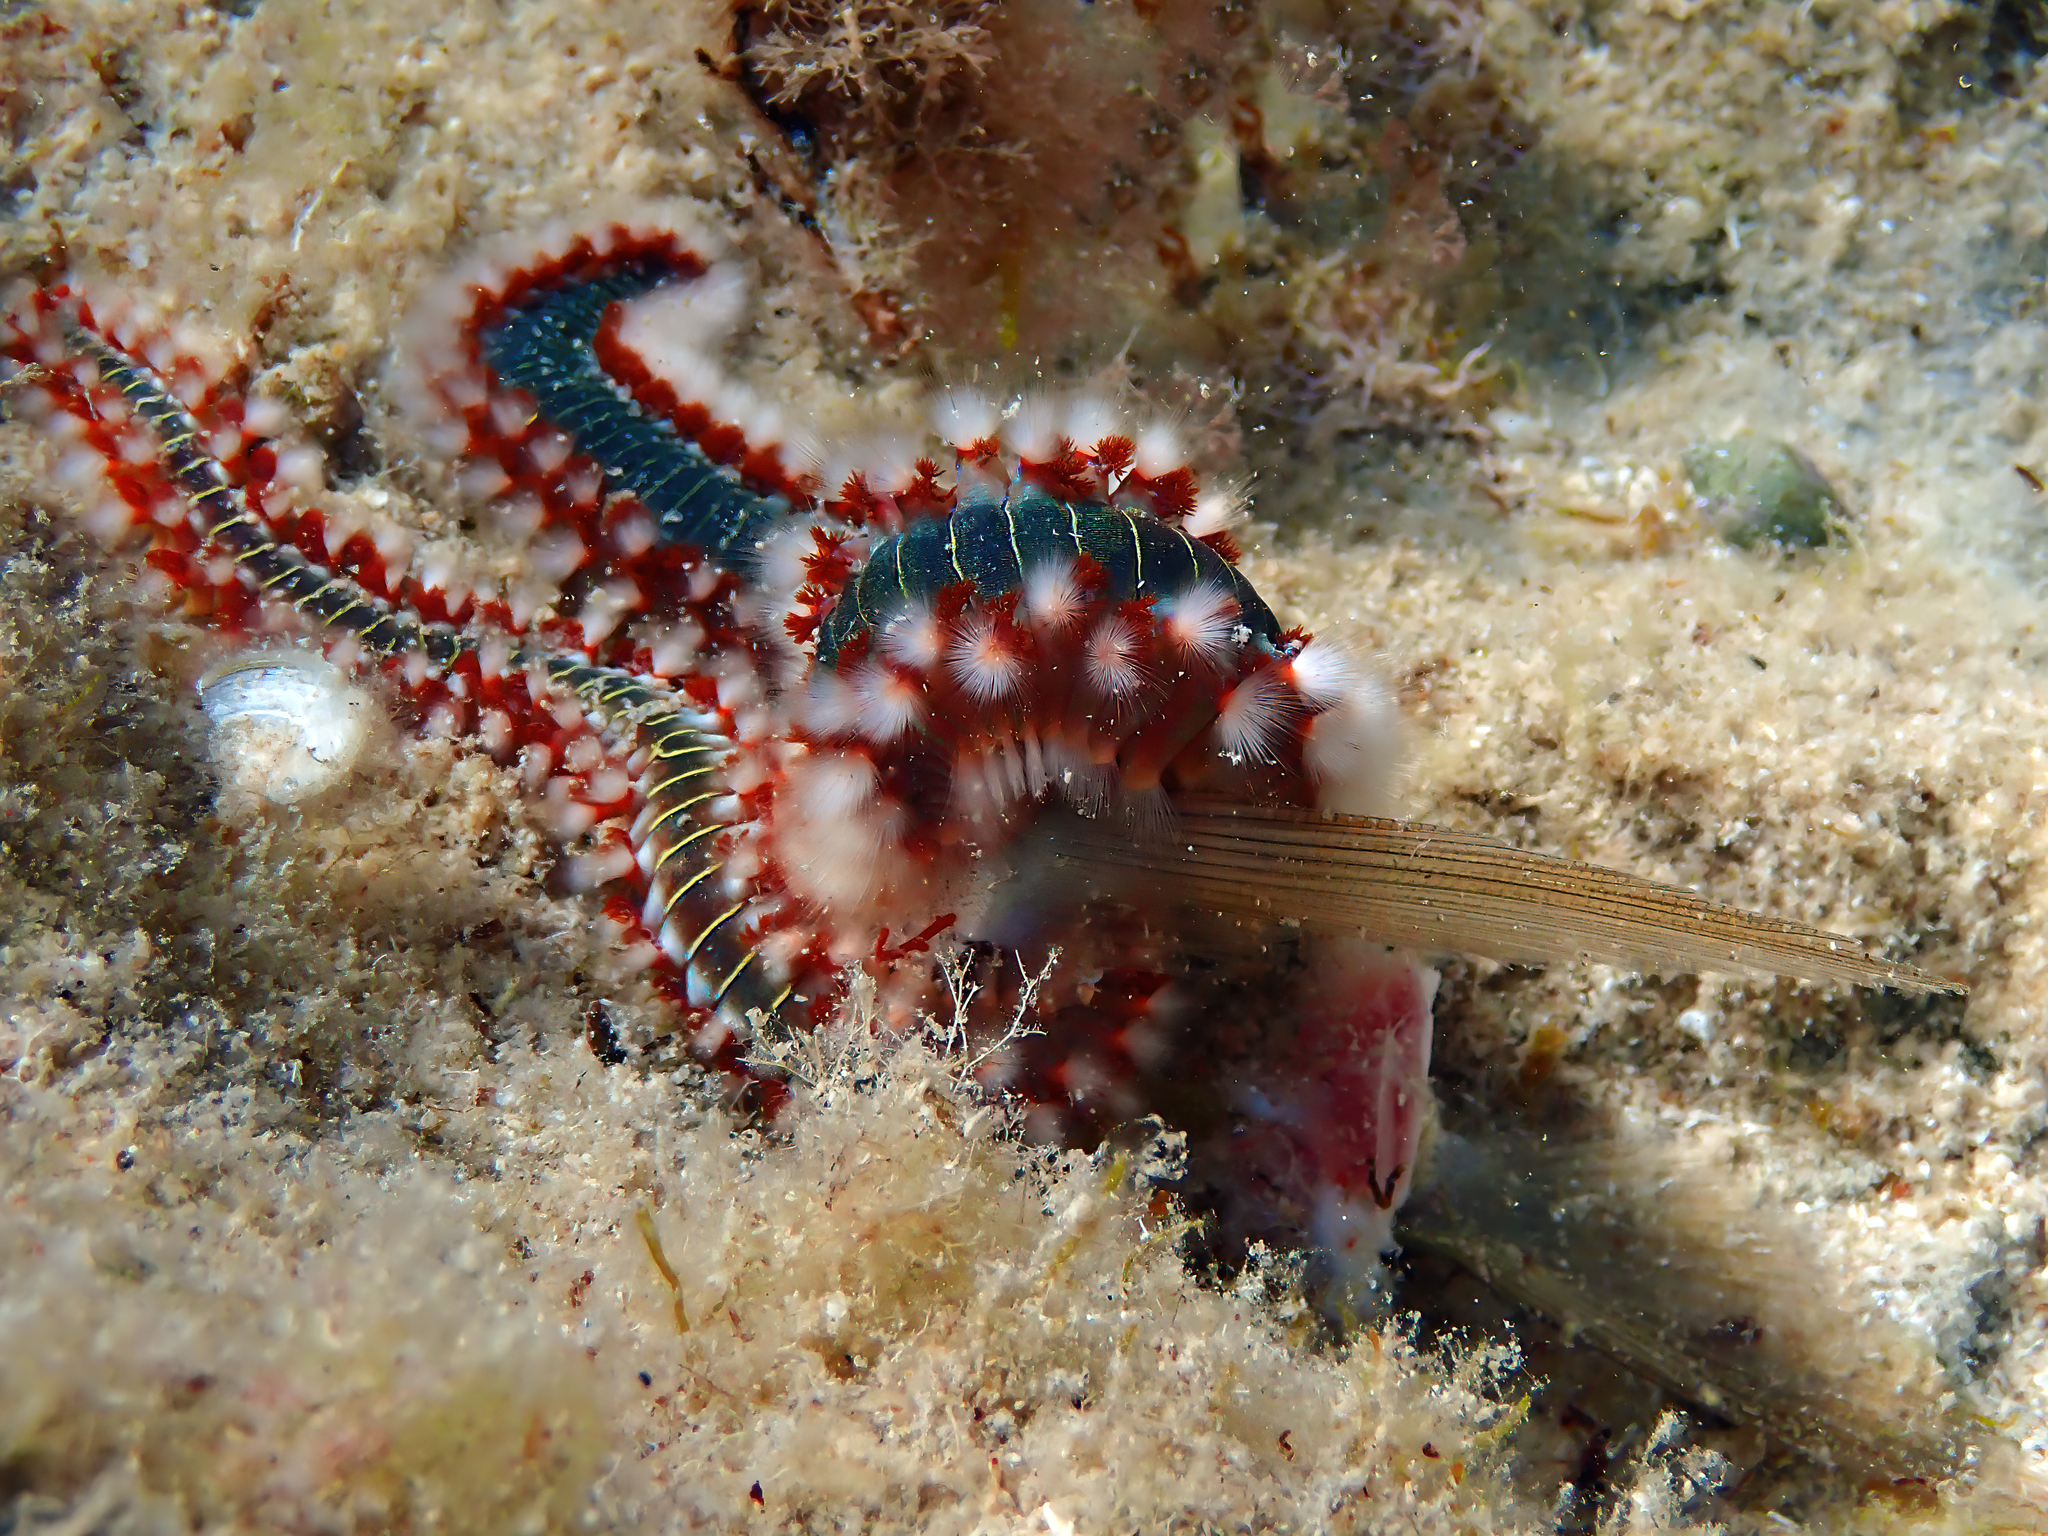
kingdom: Animalia
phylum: Annelida
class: Polychaeta
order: Amphinomida
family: Amphinomidae
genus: Hermodice
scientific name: Hermodice carunculata
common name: Bearded fireworm
